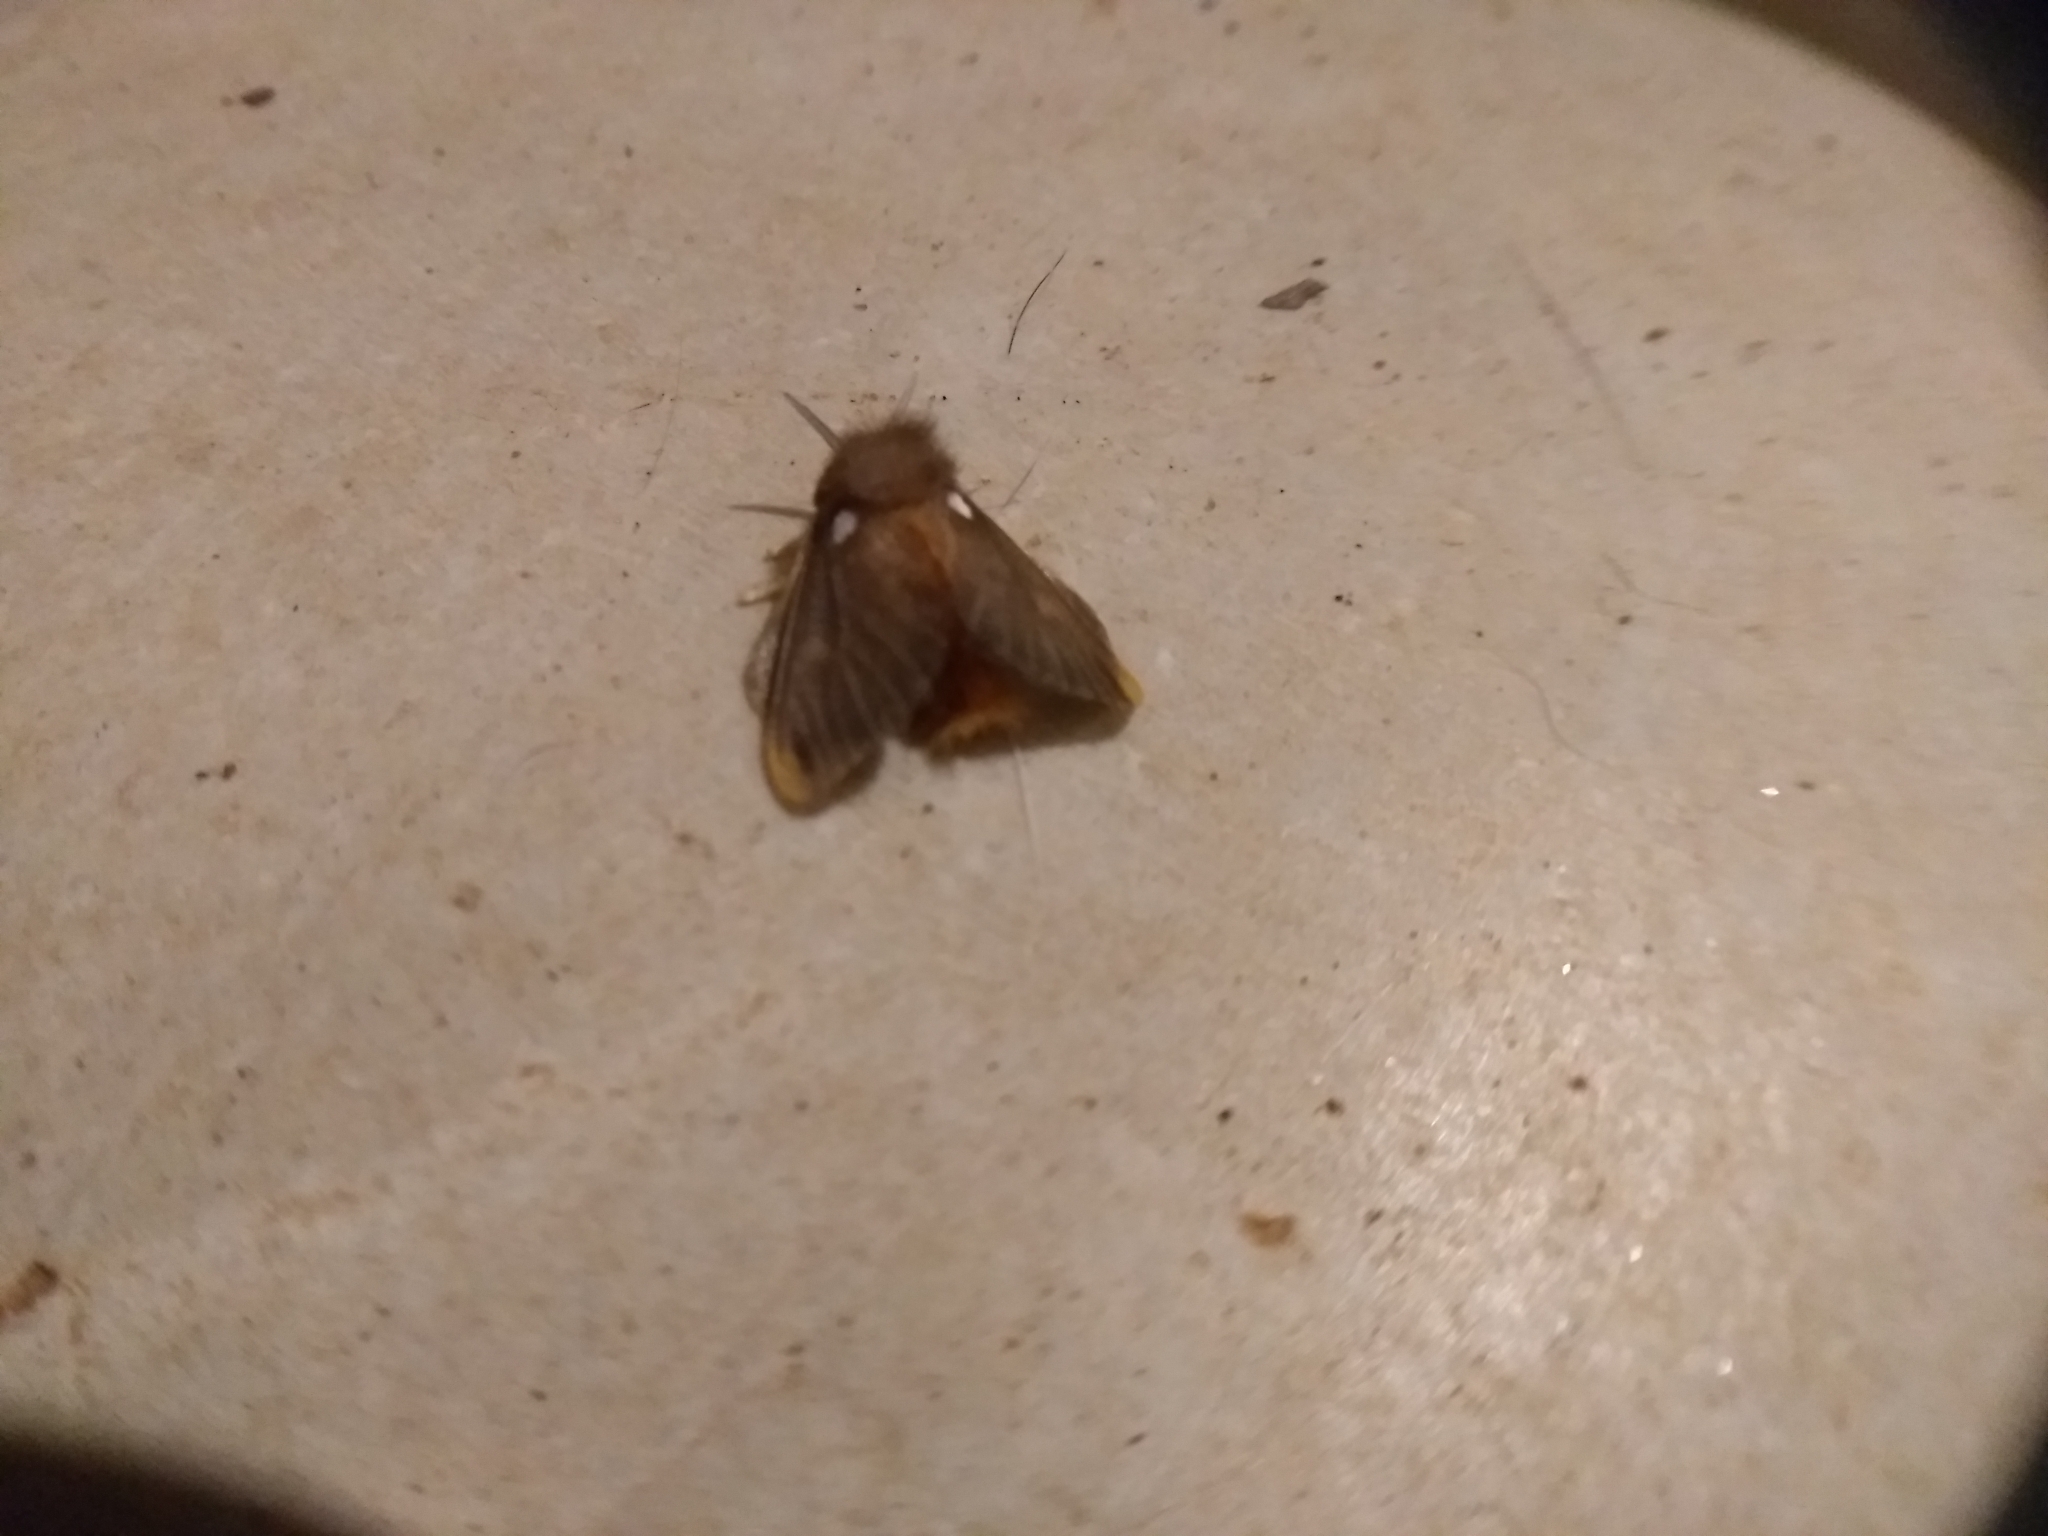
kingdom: Animalia
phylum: Arthropoda
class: Insecta
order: Lepidoptera
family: Megalopygidae
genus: Megalopyge
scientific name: Megalopyge basalis
